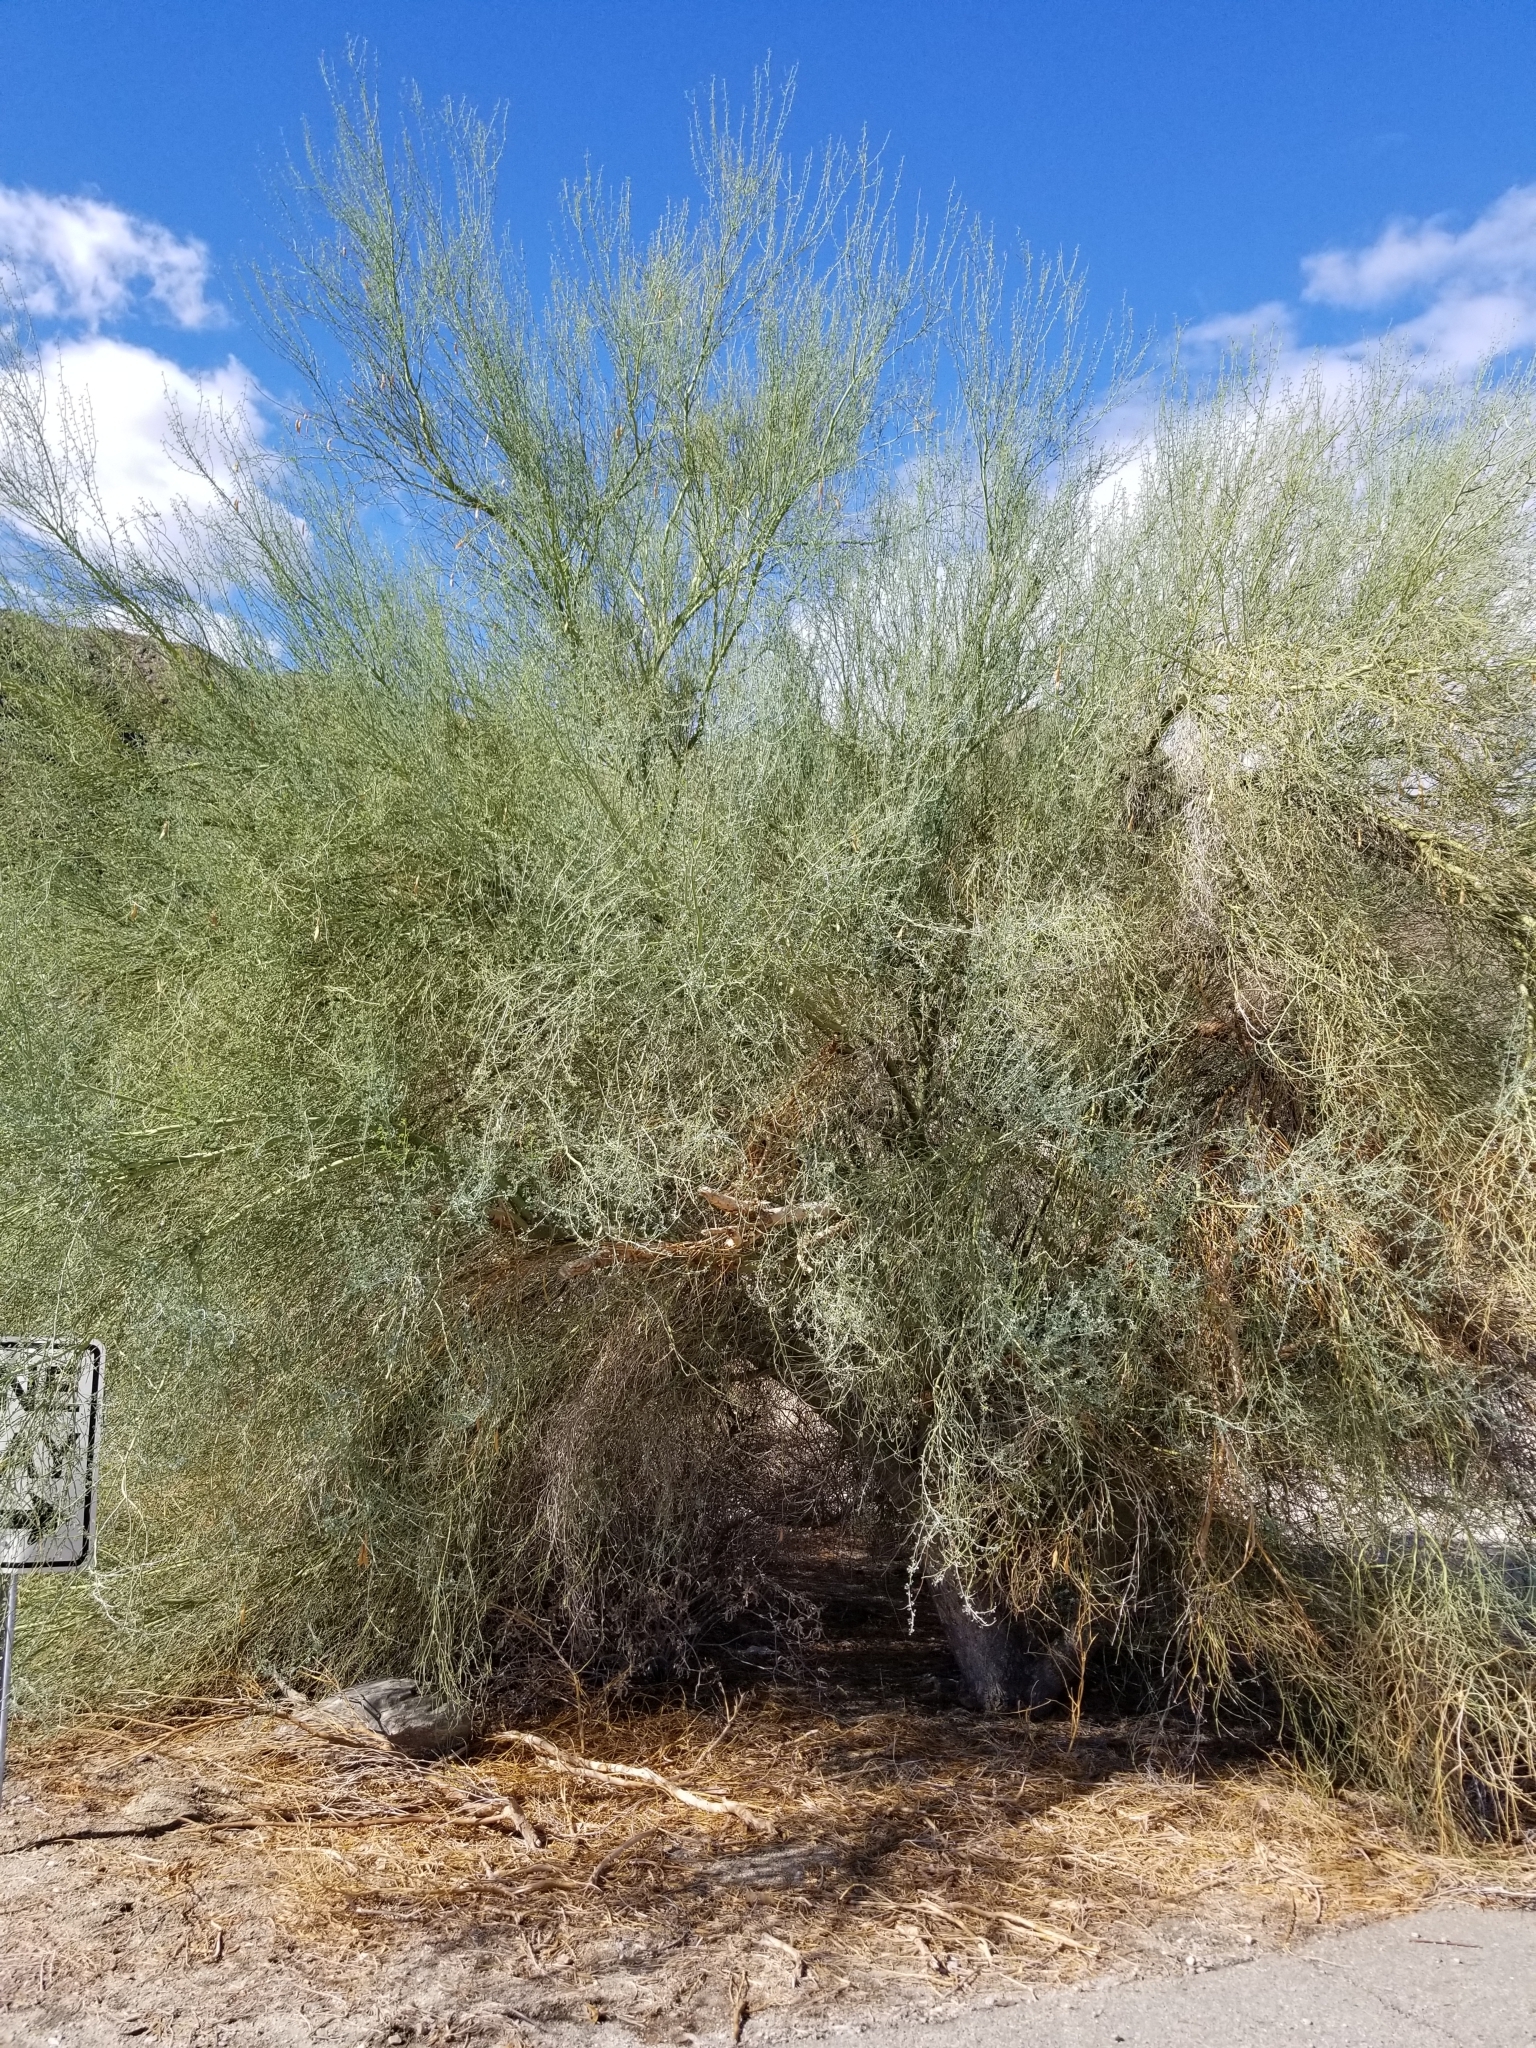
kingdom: Plantae
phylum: Tracheophyta
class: Magnoliopsida
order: Fabales
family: Fabaceae
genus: Parkinsonia
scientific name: Parkinsonia florida
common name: Blue paloverde
